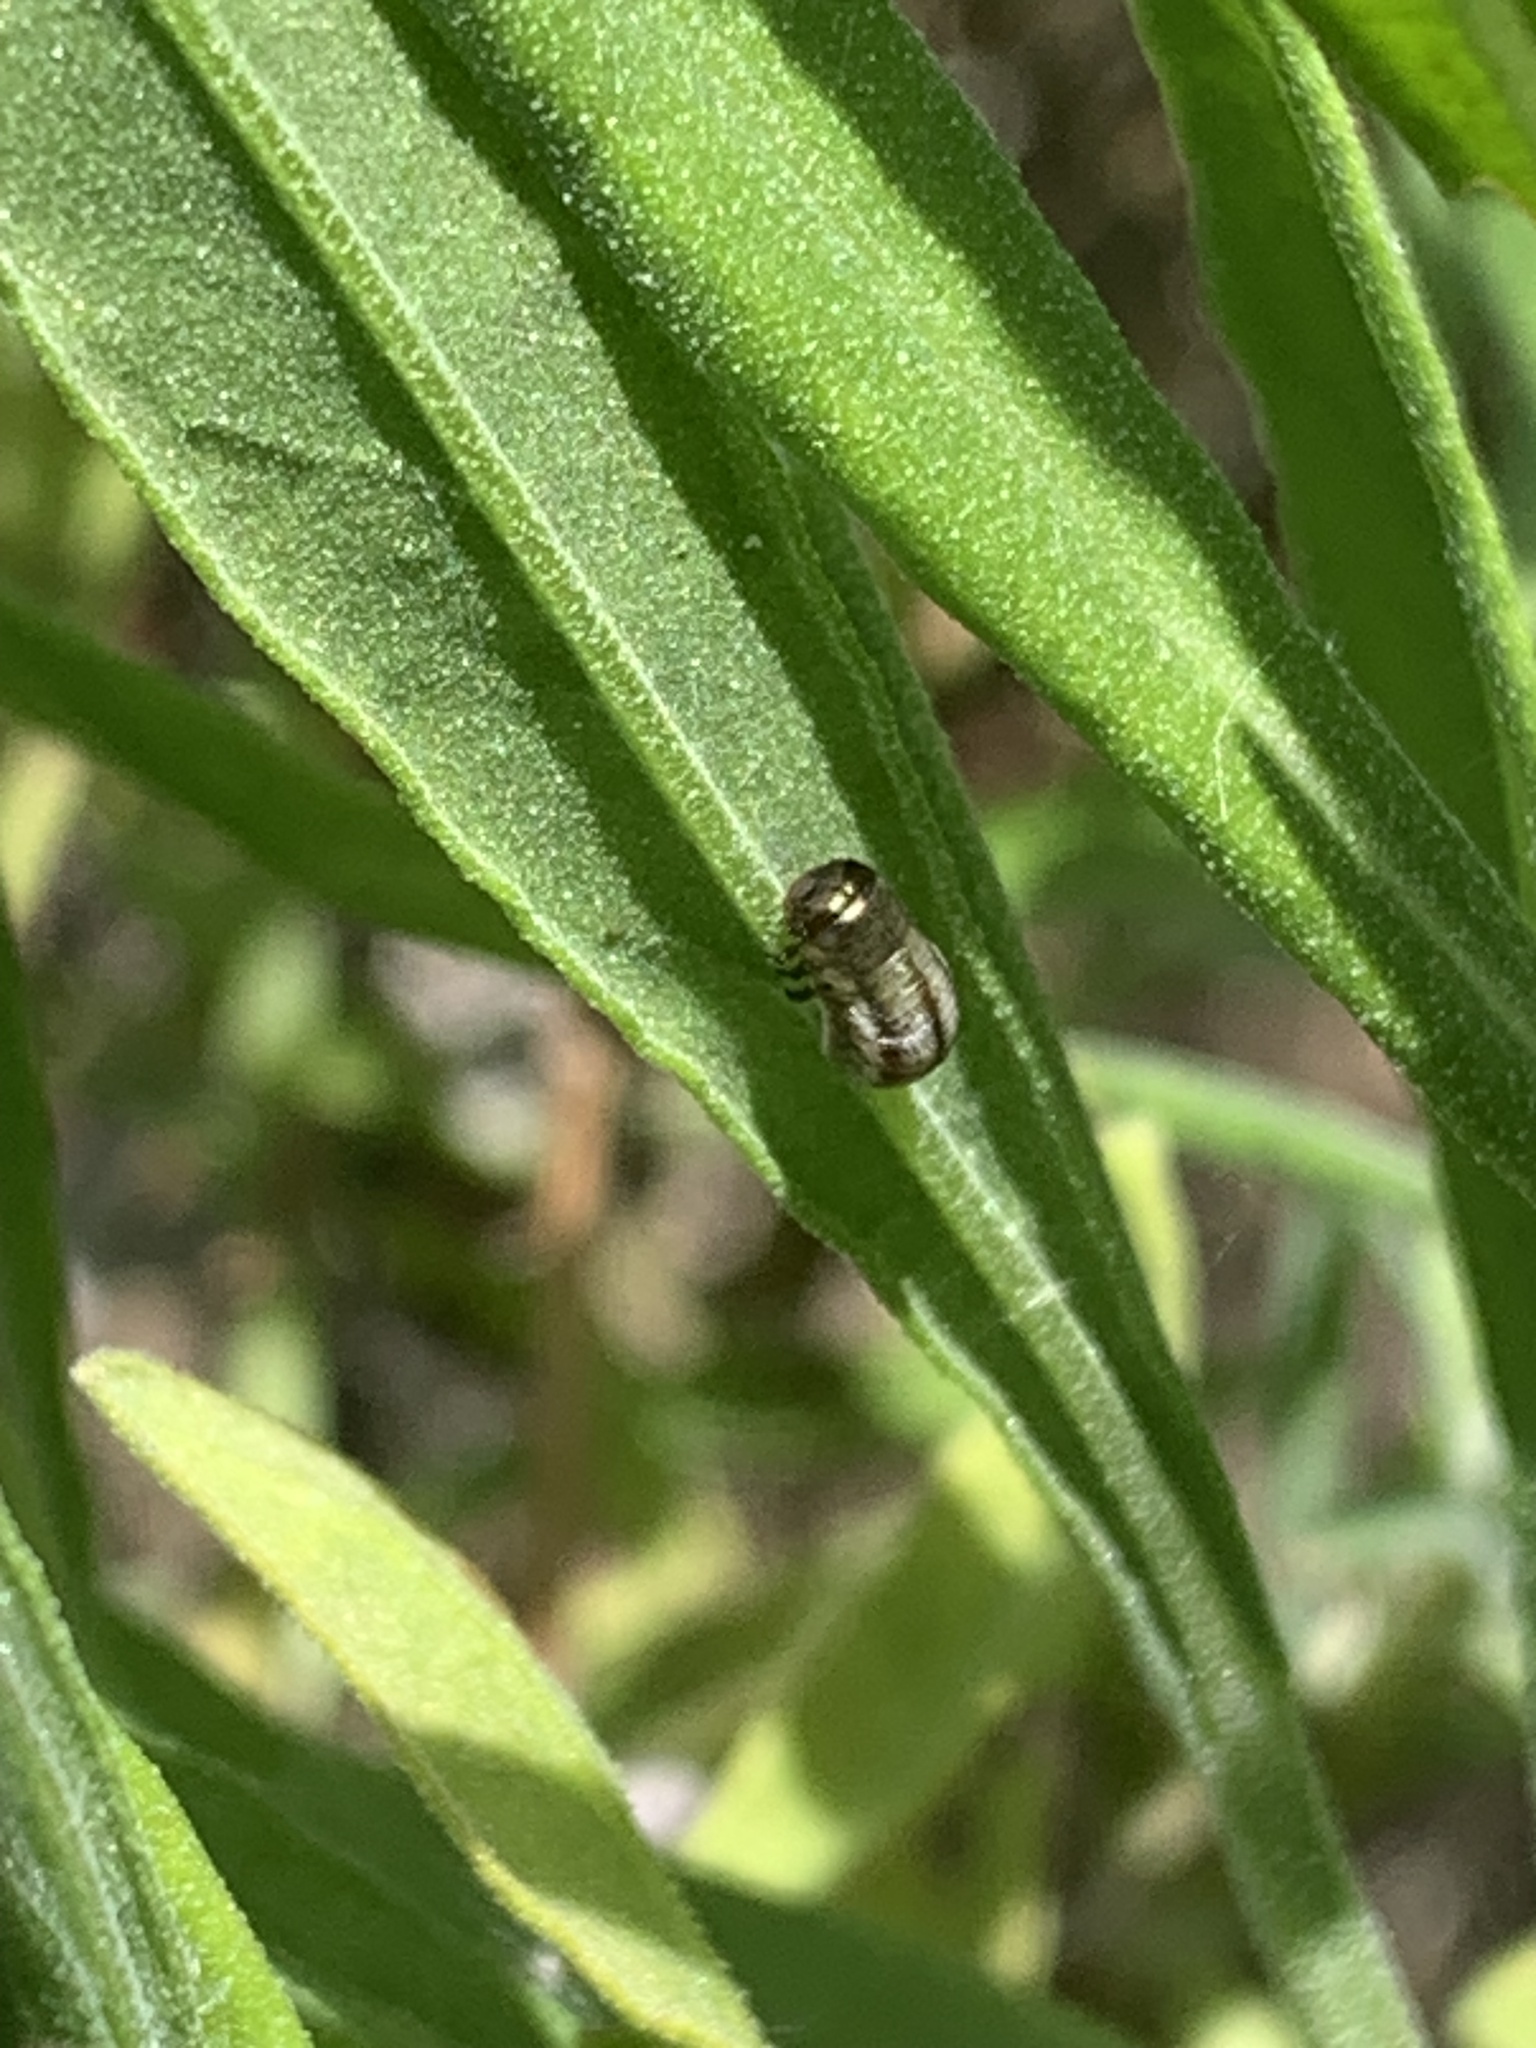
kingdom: Animalia
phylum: Arthropoda
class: Insecta
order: Coleoptera
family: Chrysomelidae
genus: Chrysolina
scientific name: Chrysolina americana
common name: Rosemary beetle
